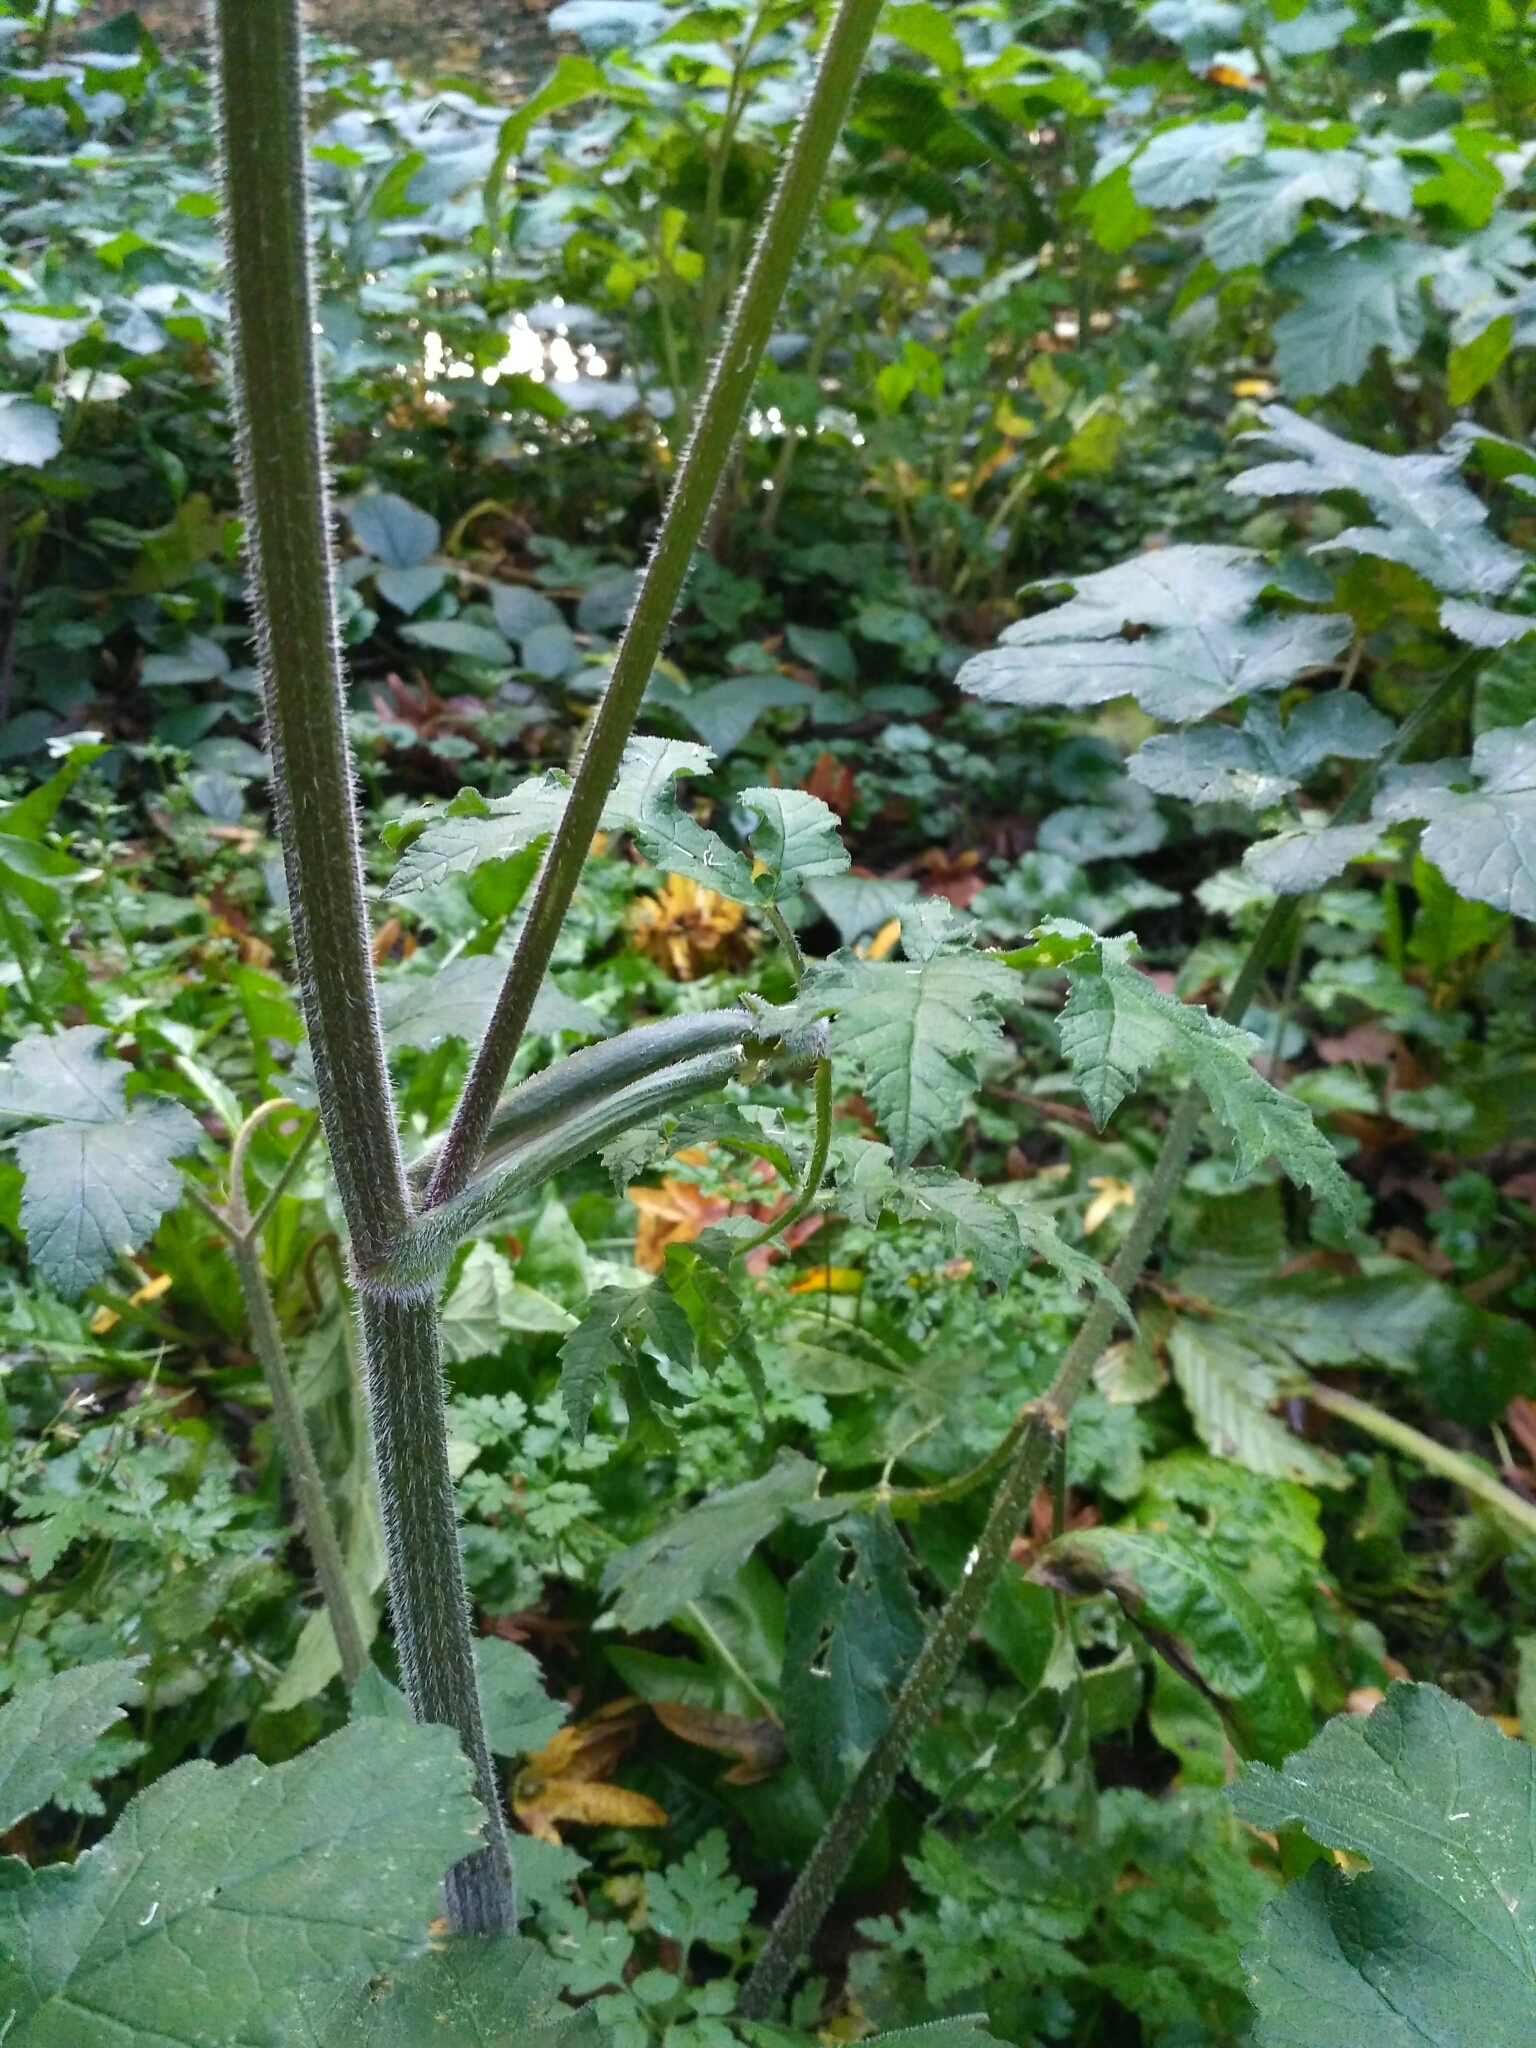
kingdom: Plantae
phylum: Tracheophyta
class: Magnoliopsida
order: Apiales
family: Apiaceae
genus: Heracleum
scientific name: Heracleum sphondylium
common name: Hogweed
